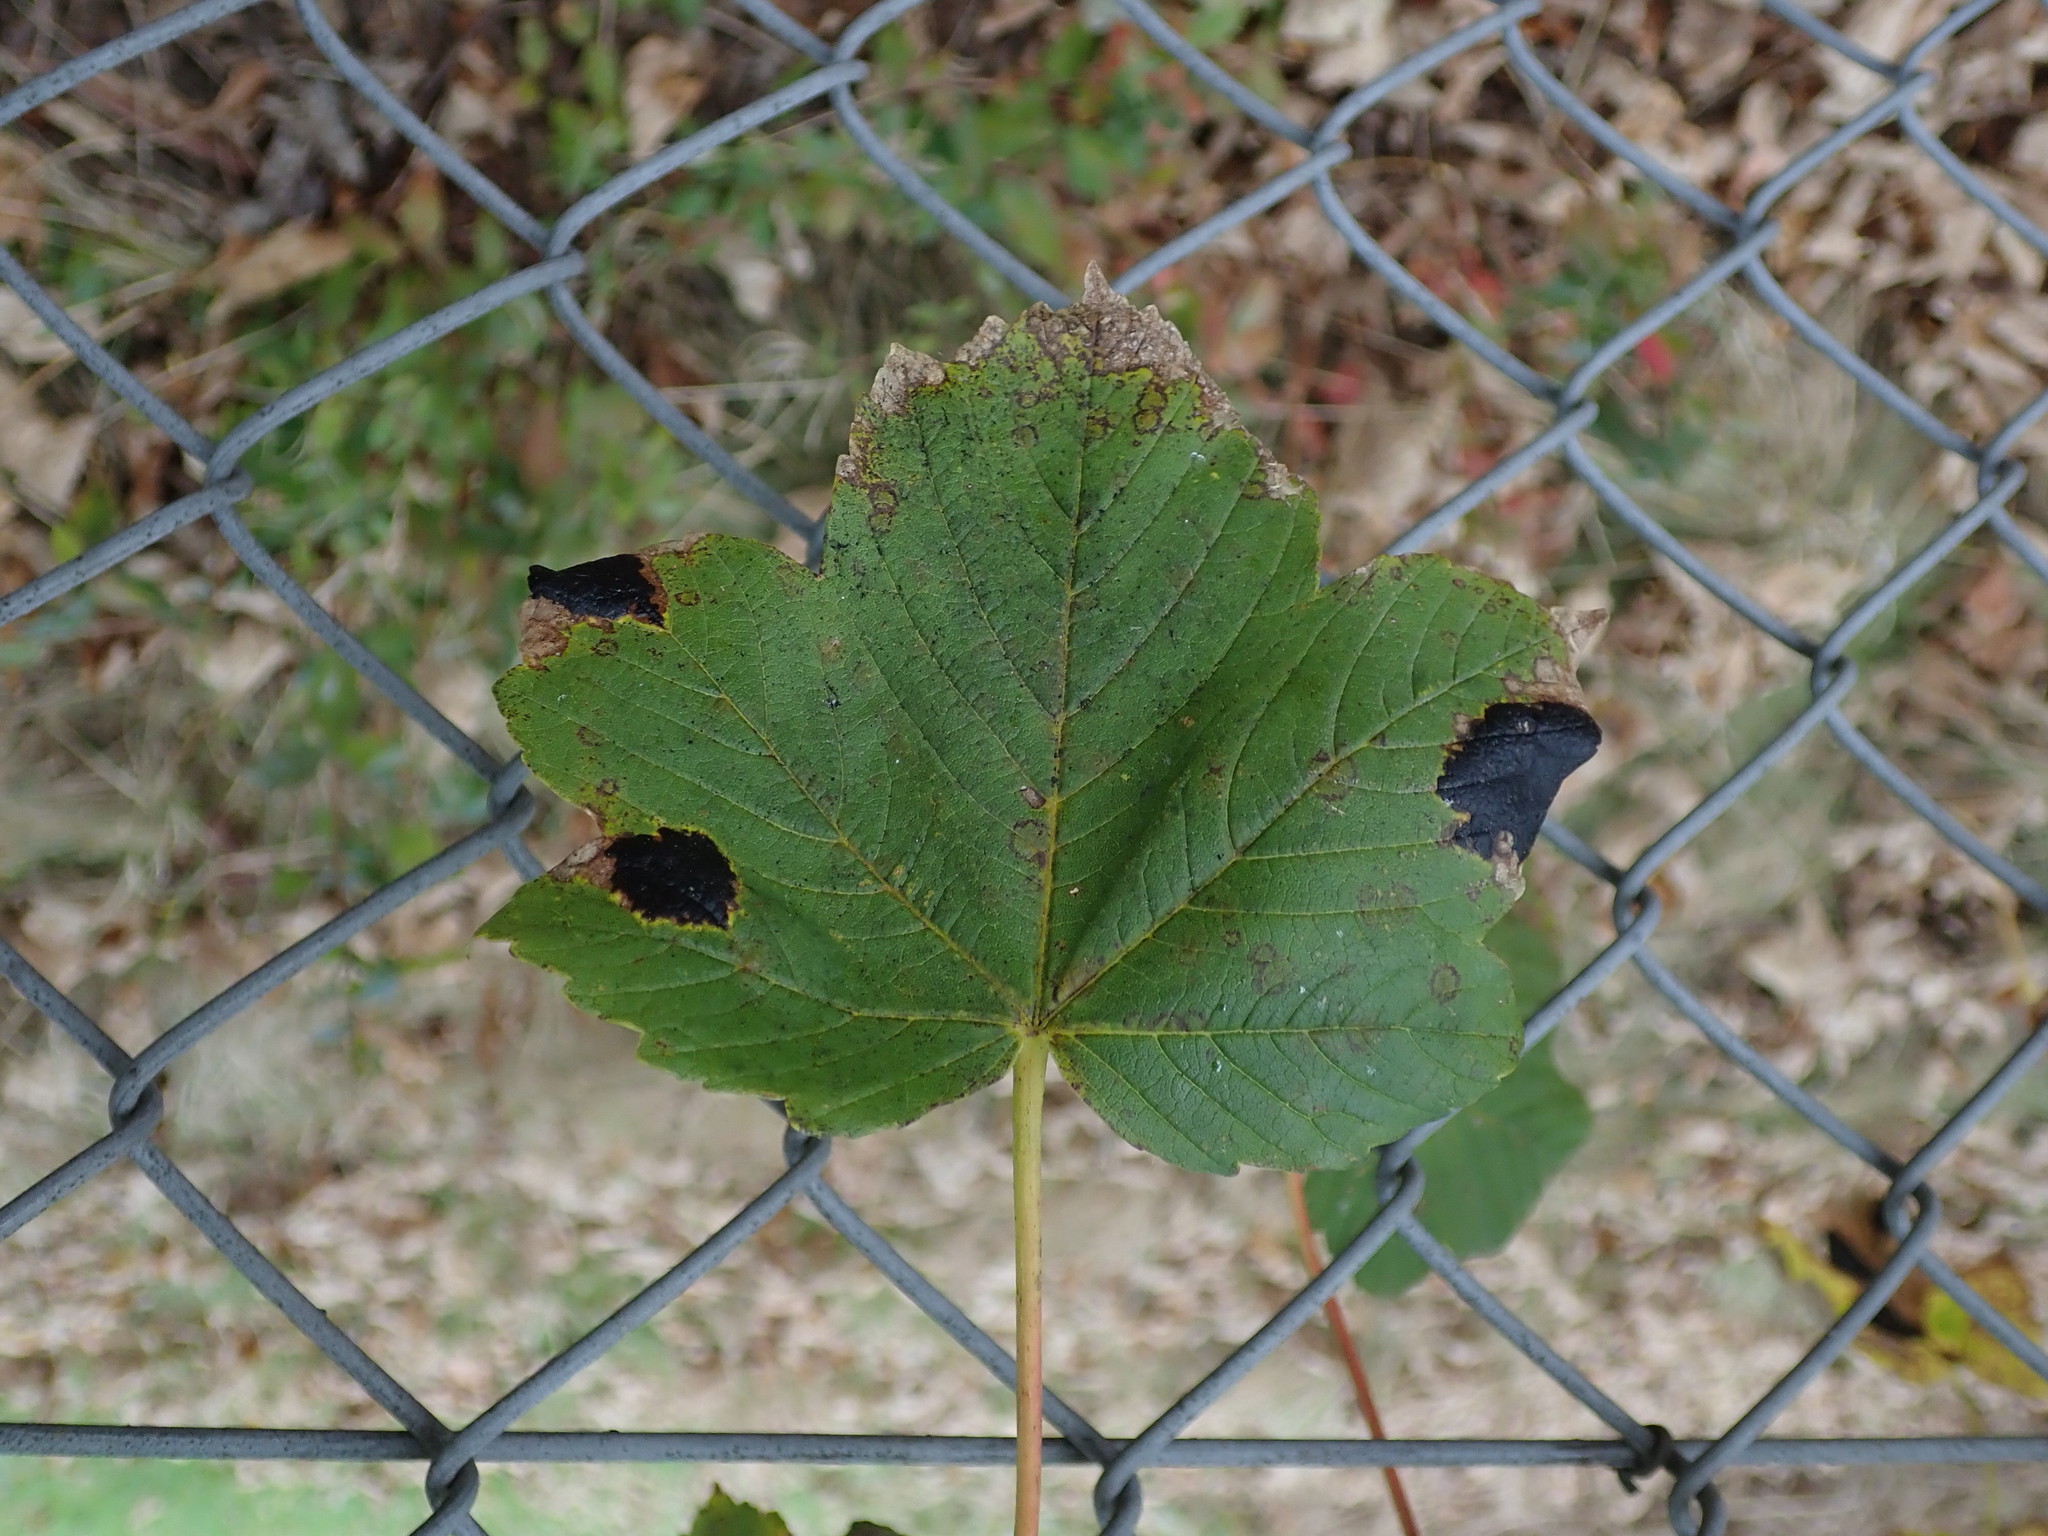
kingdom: Fungi
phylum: Ascomycota
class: Leotiomycetes
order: Rhytismatales
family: Rhytismataceae
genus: Rhytisma
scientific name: Rhytisma acerinum
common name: European tar spot
